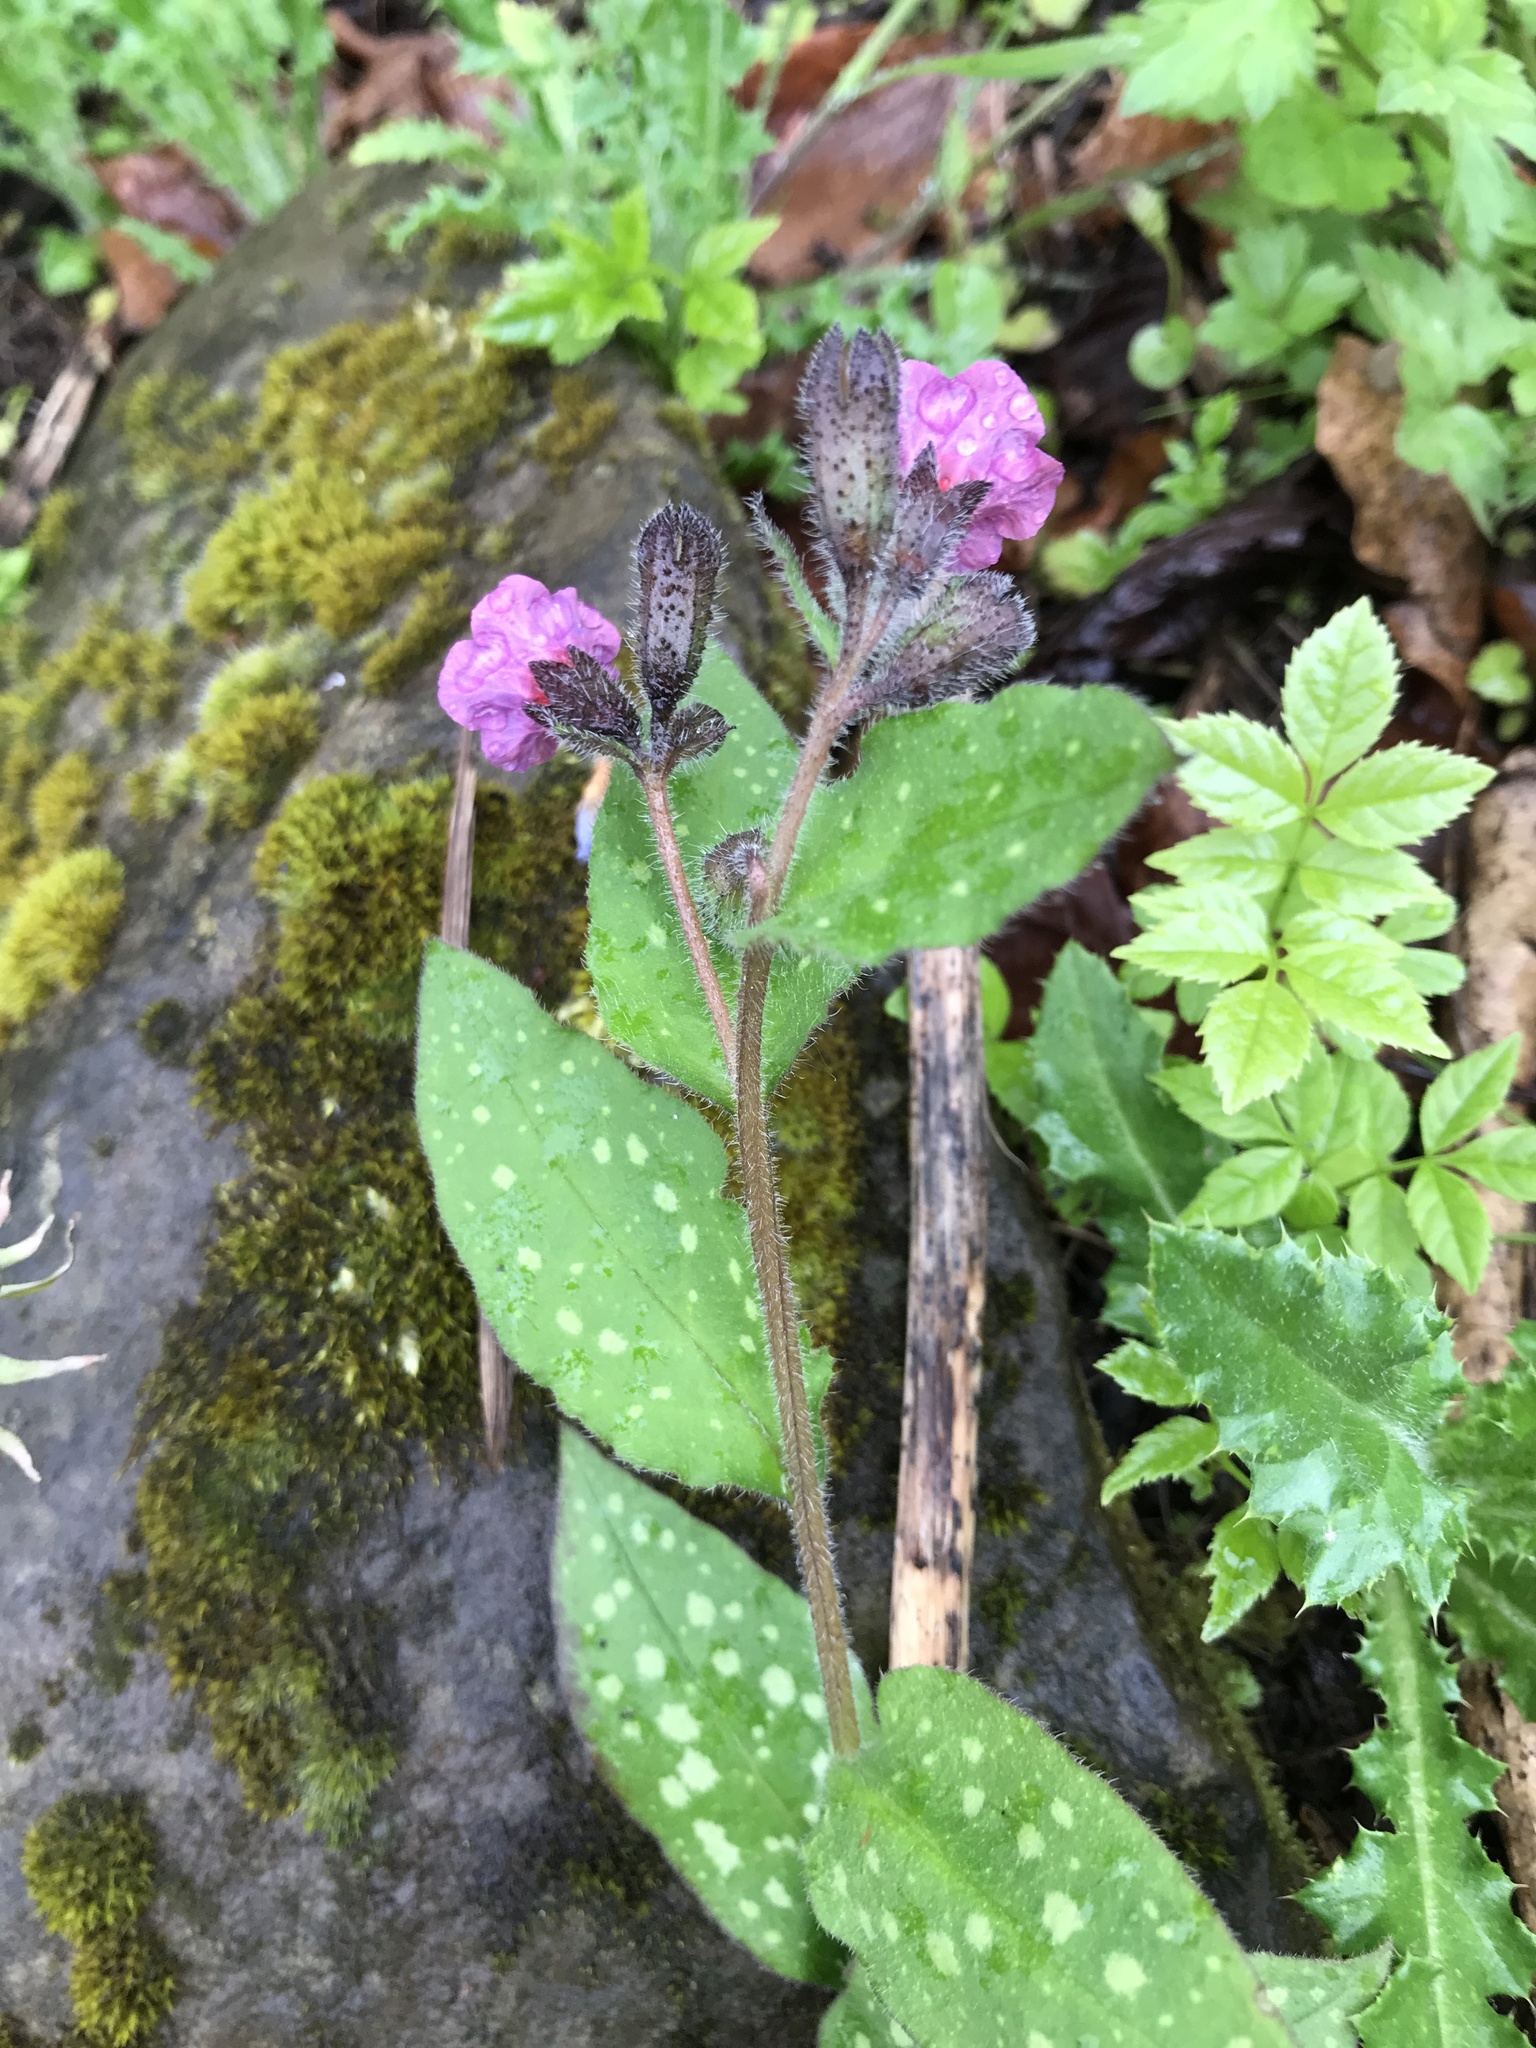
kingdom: Plantae
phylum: Tracheophyta
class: Magnoliopsida
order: Boraginales
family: Boraginaceae
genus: Pulmonaria
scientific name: Pulmonaria officinalis
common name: Lungwort
